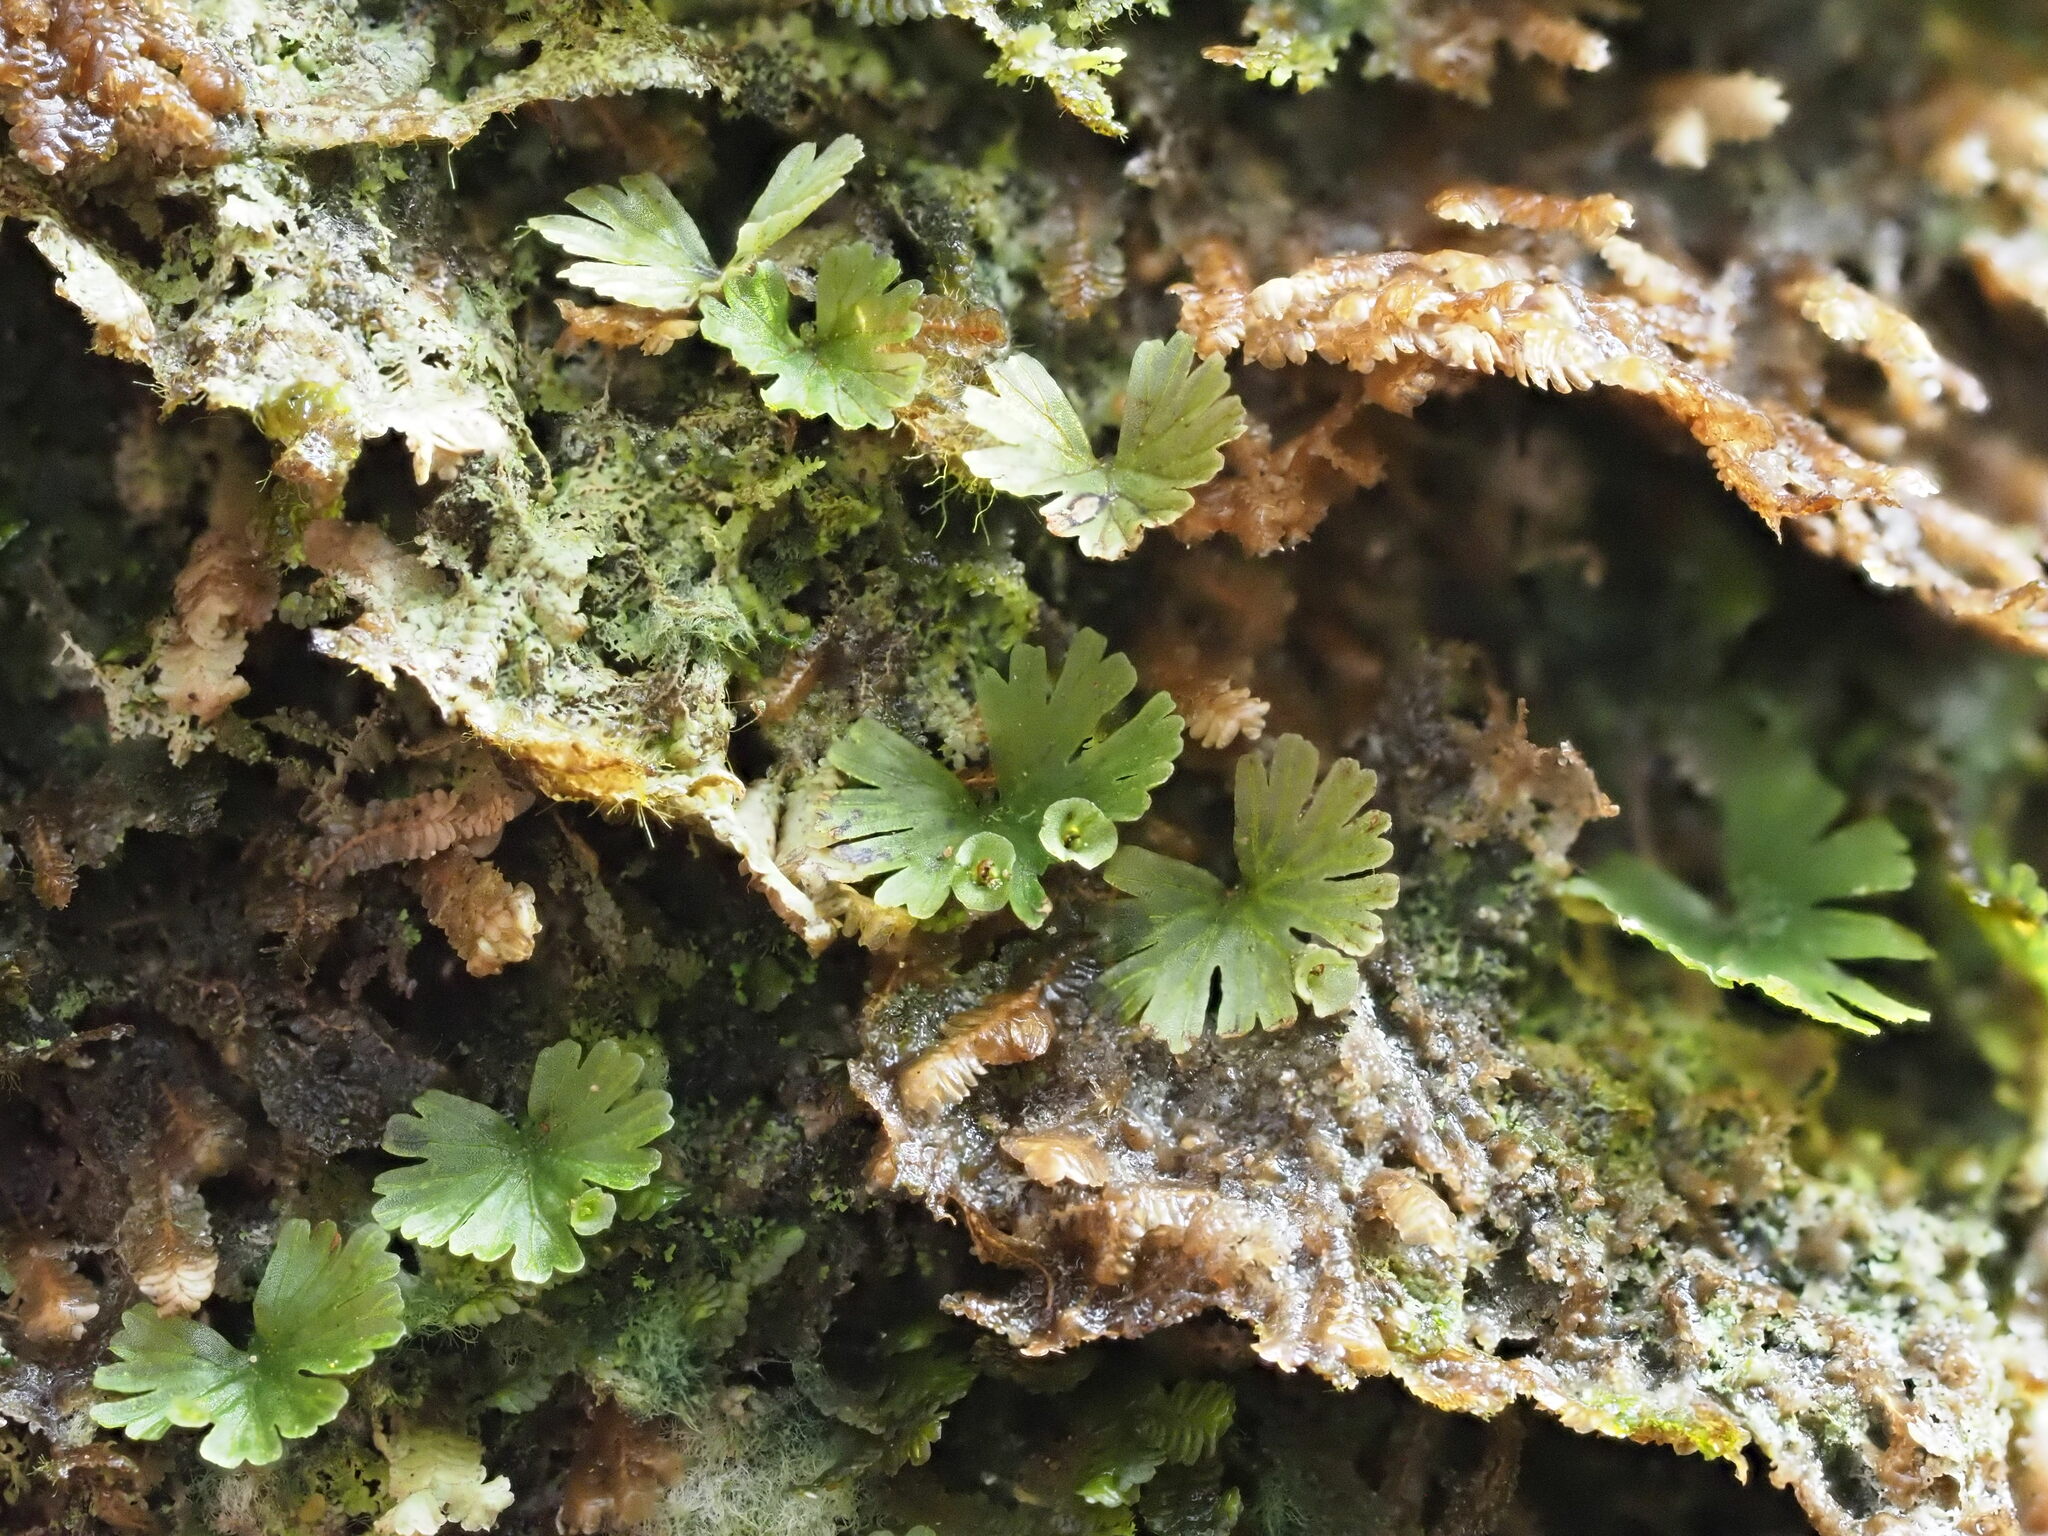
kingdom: Plantae
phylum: Tracheophyta
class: Polypodiopsida
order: Hymenophyllales
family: Hymenophyllaceae
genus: Crepidomanes
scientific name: Crepidomanes parvulum
